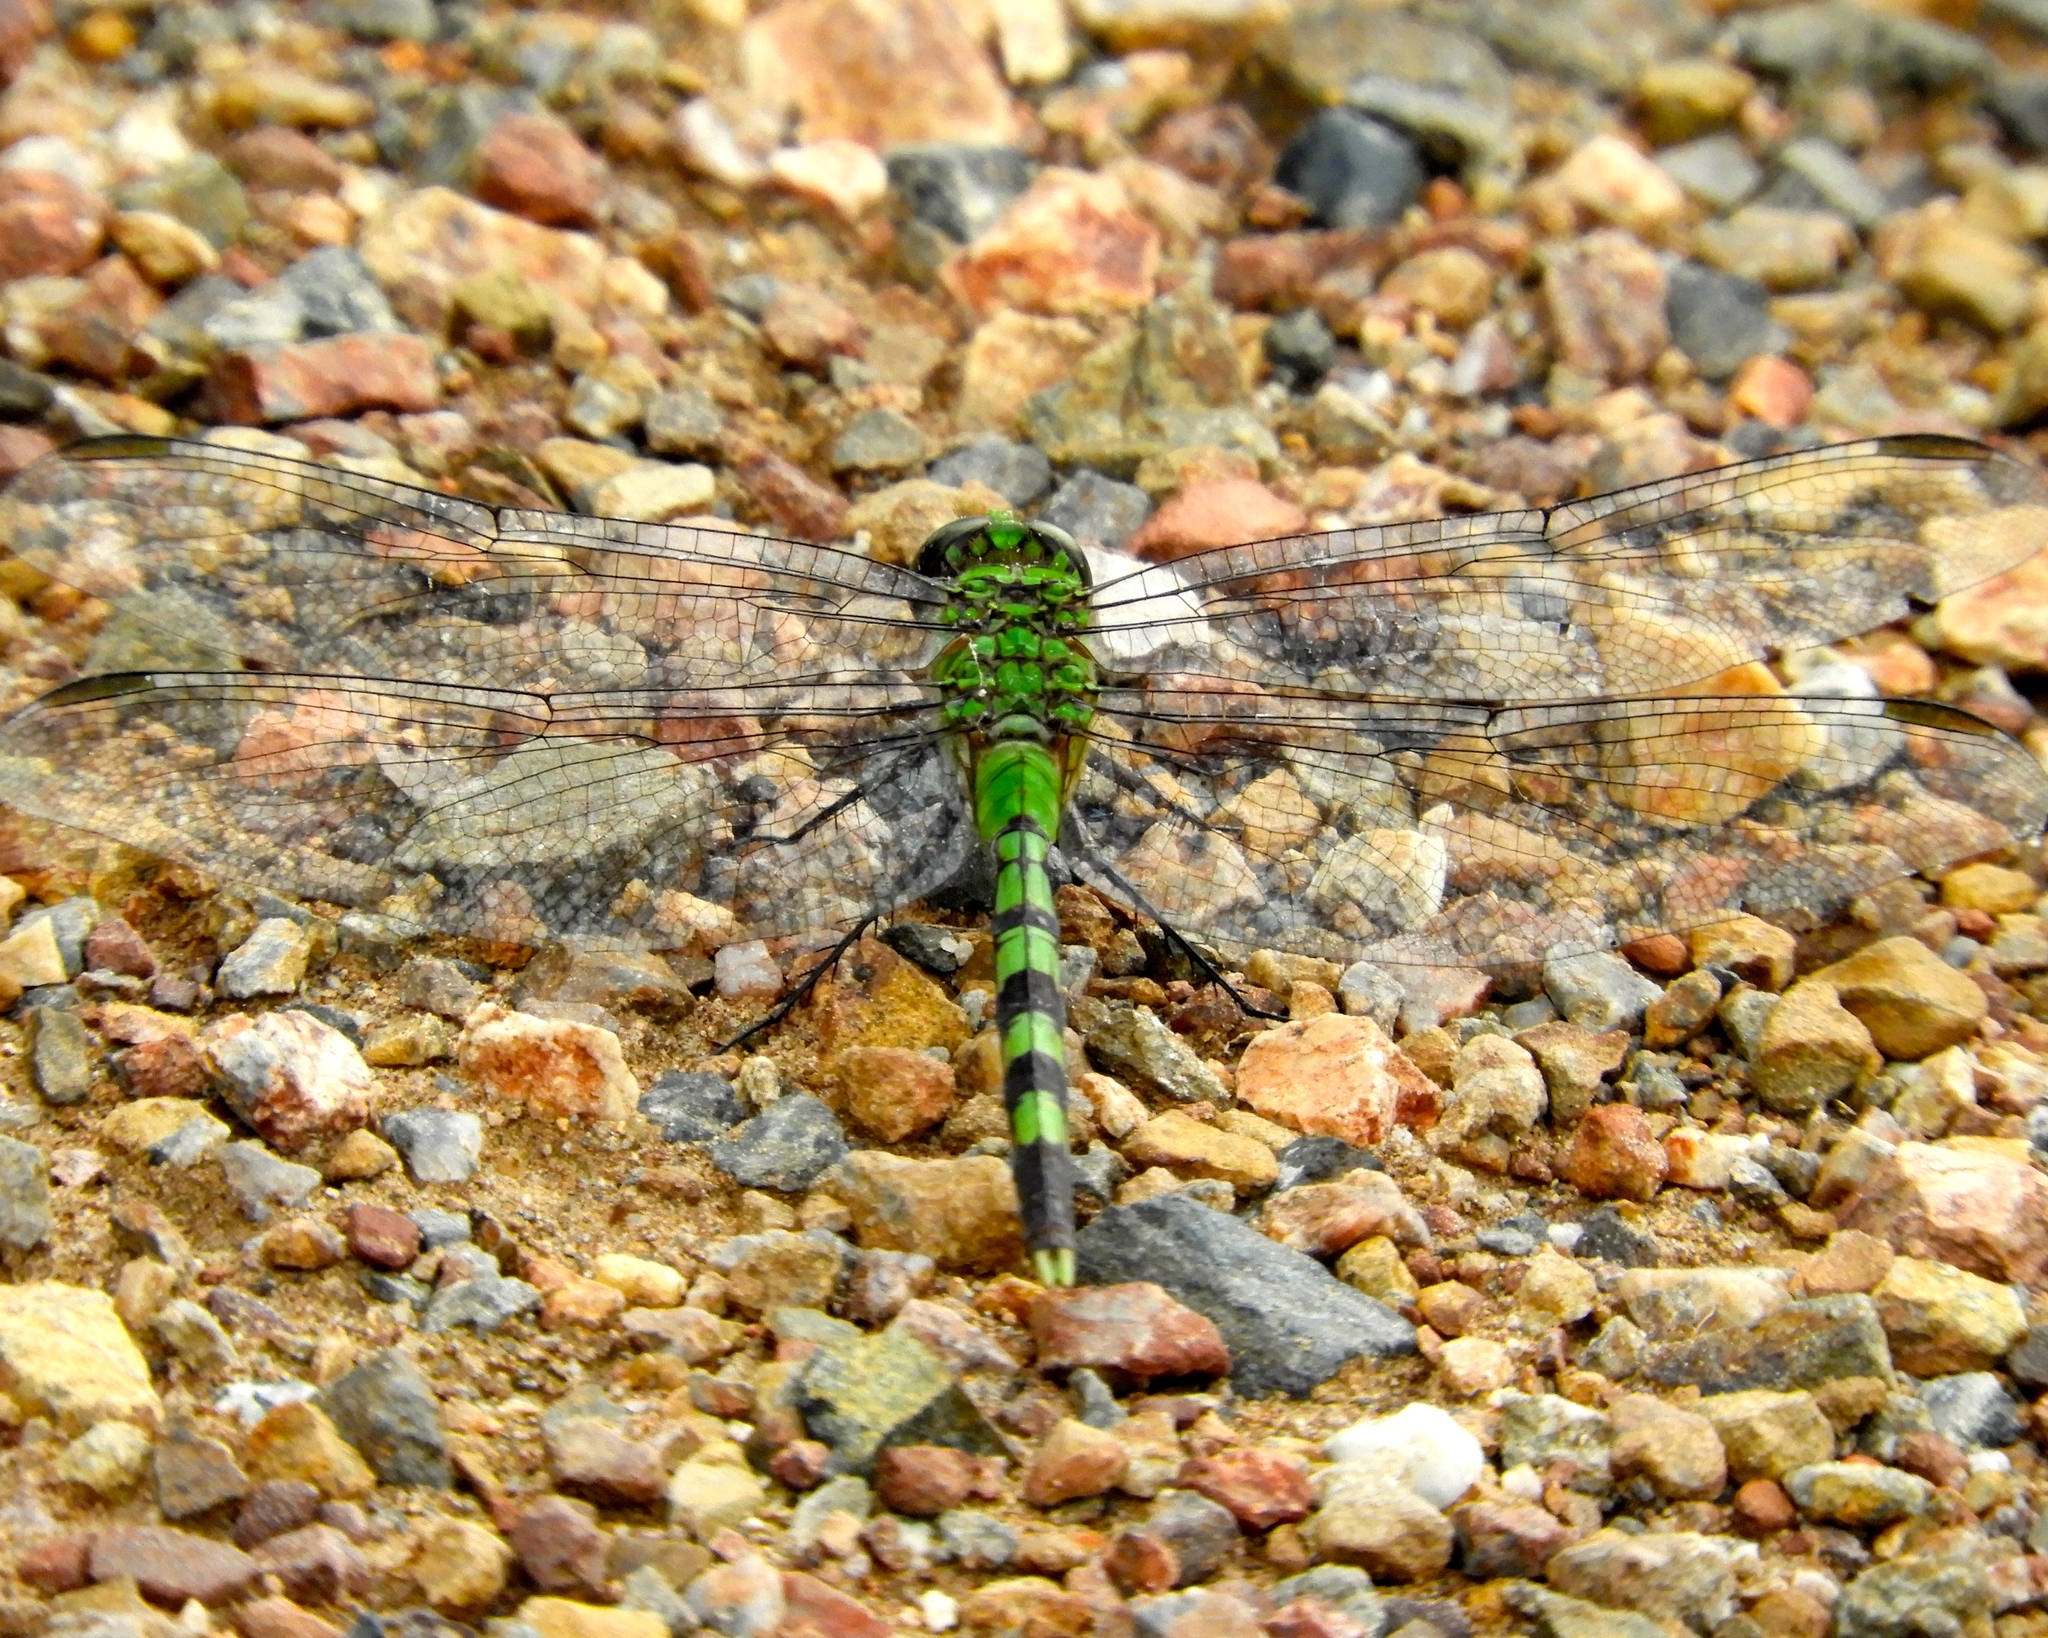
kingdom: Animalia
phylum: Arthropoda
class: Insecta
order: Odonata
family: Libellulidae
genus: Erythemis
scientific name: Erythemis vesiculosa
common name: Great pondhawk
